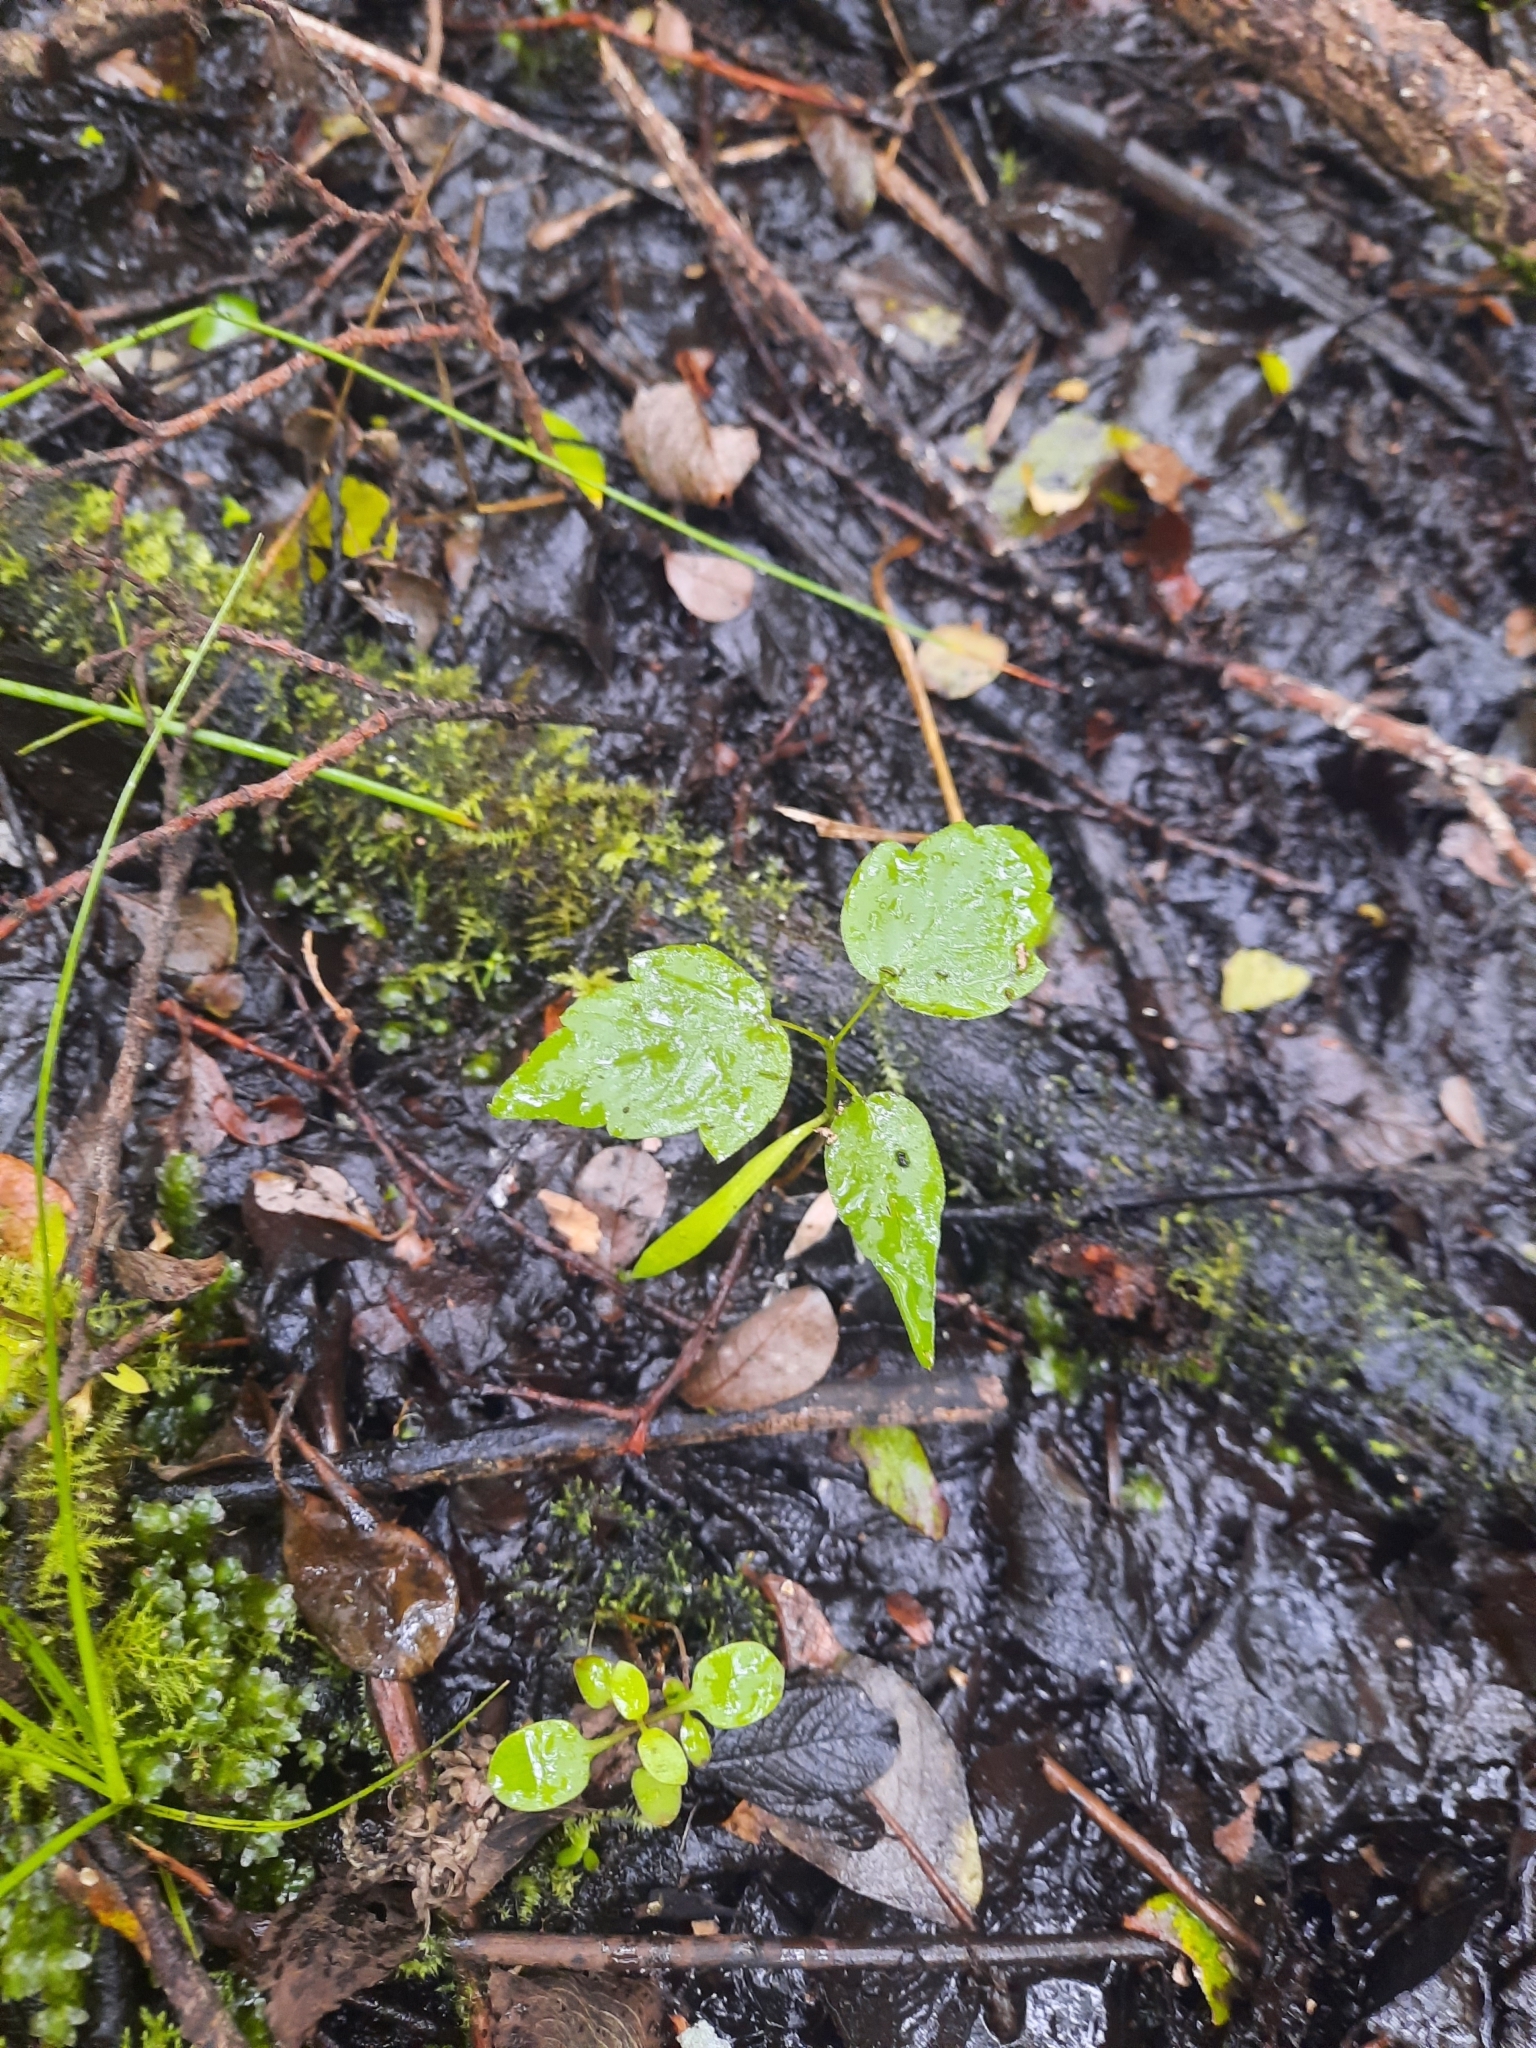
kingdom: Plantae
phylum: Tracheophyta
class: Magnoliopsida
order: Sapindales
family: Sapindaceae
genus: Acer
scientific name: Acer pseudoplatanus
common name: Sycamore
